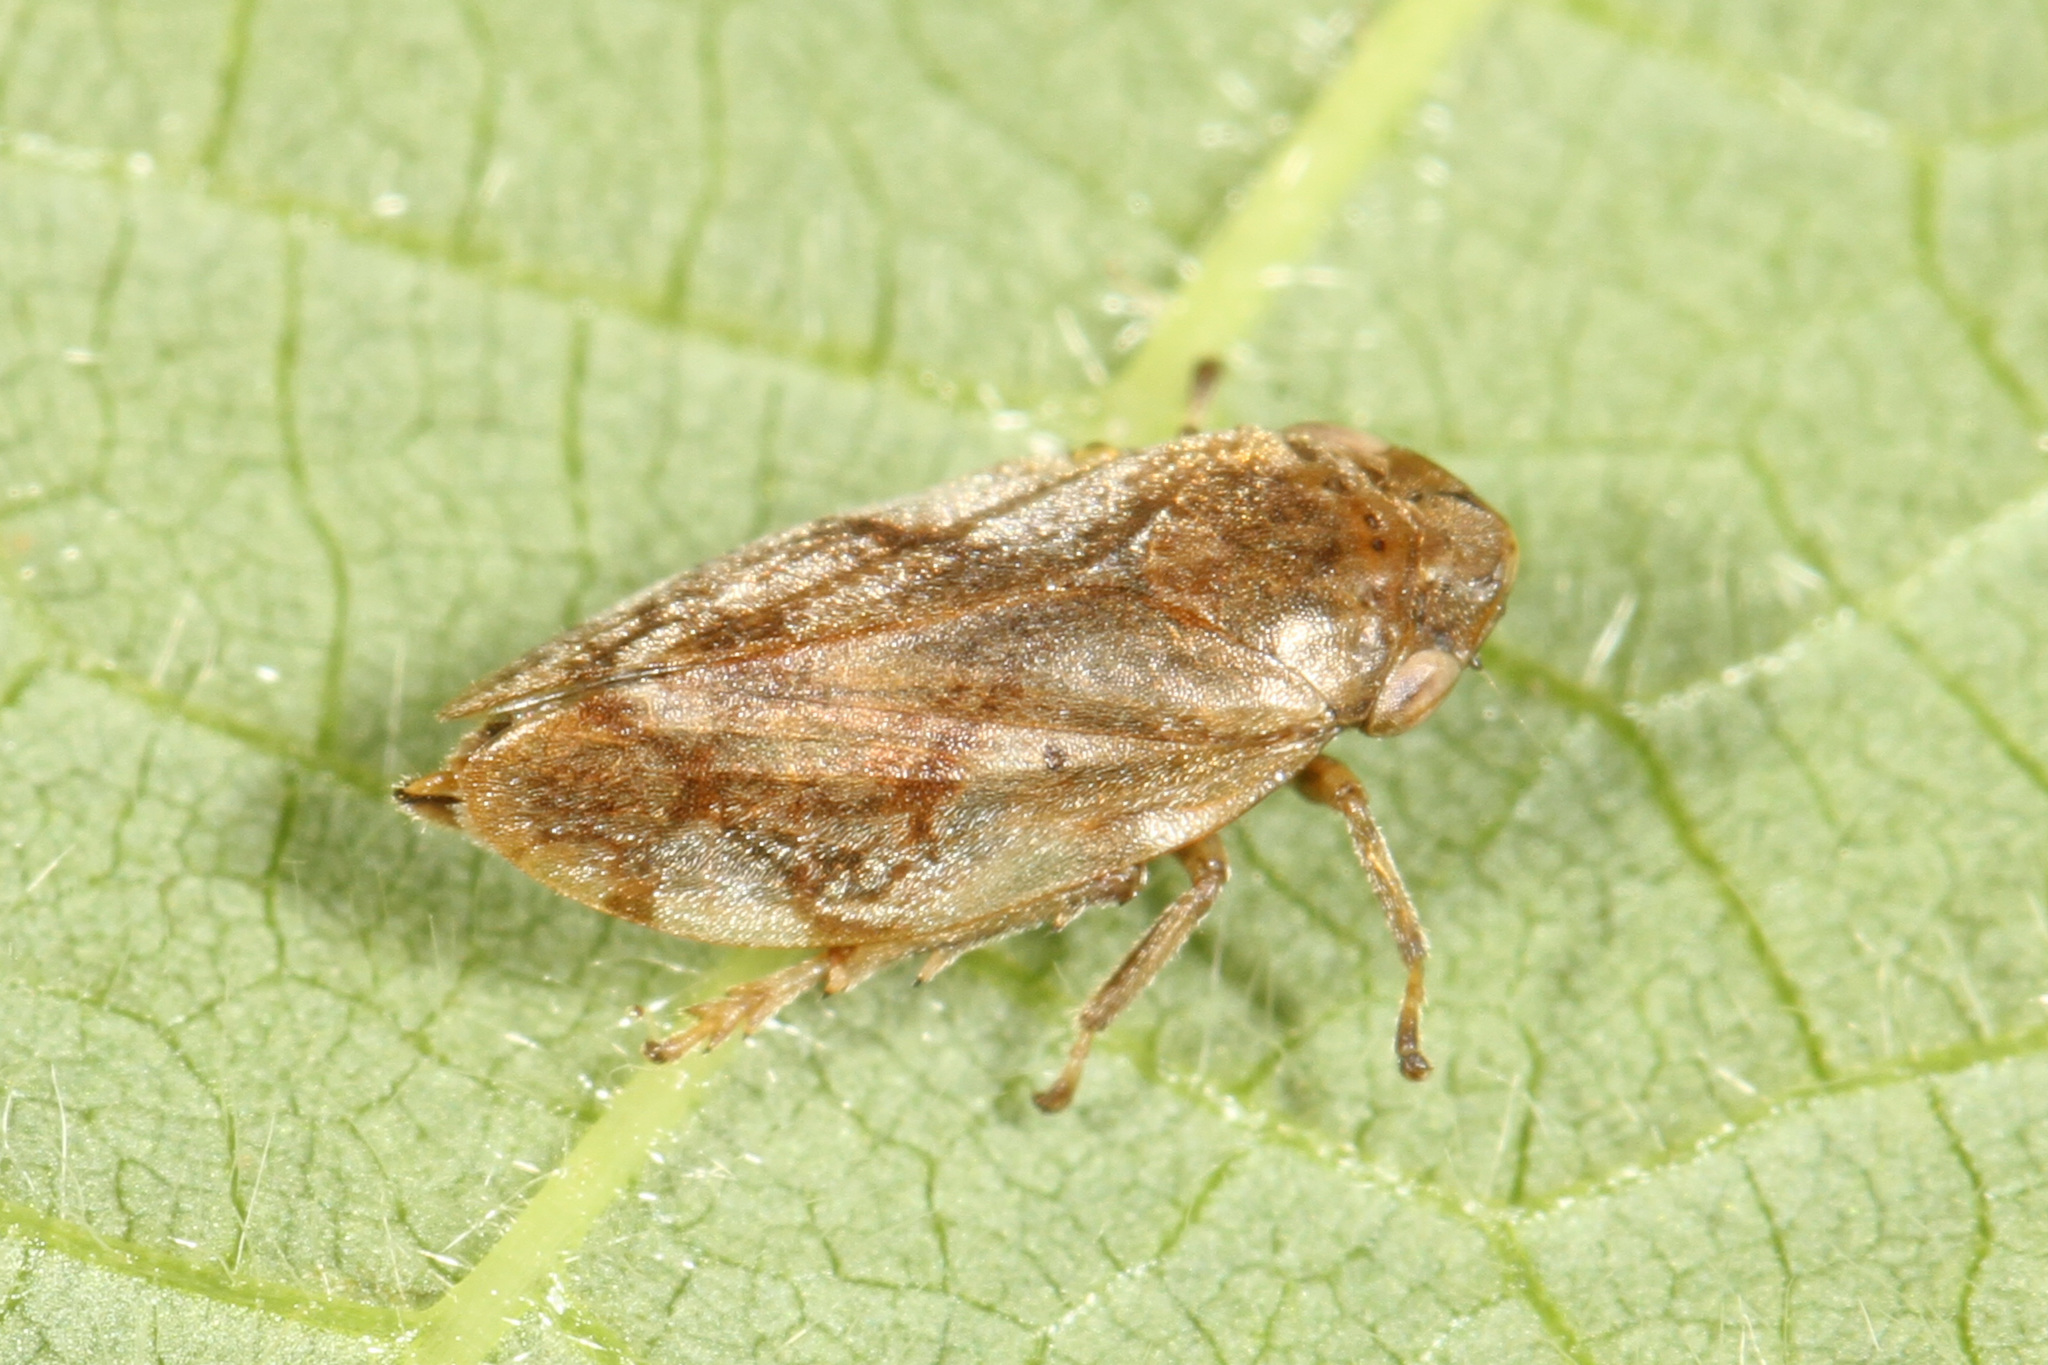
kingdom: Animalia
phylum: Arthropoda
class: Insecta
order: Hemiptera
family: Aphrophoridae
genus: Philaenus
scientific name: Philaenus spumarius
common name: Meadow spittlebug
